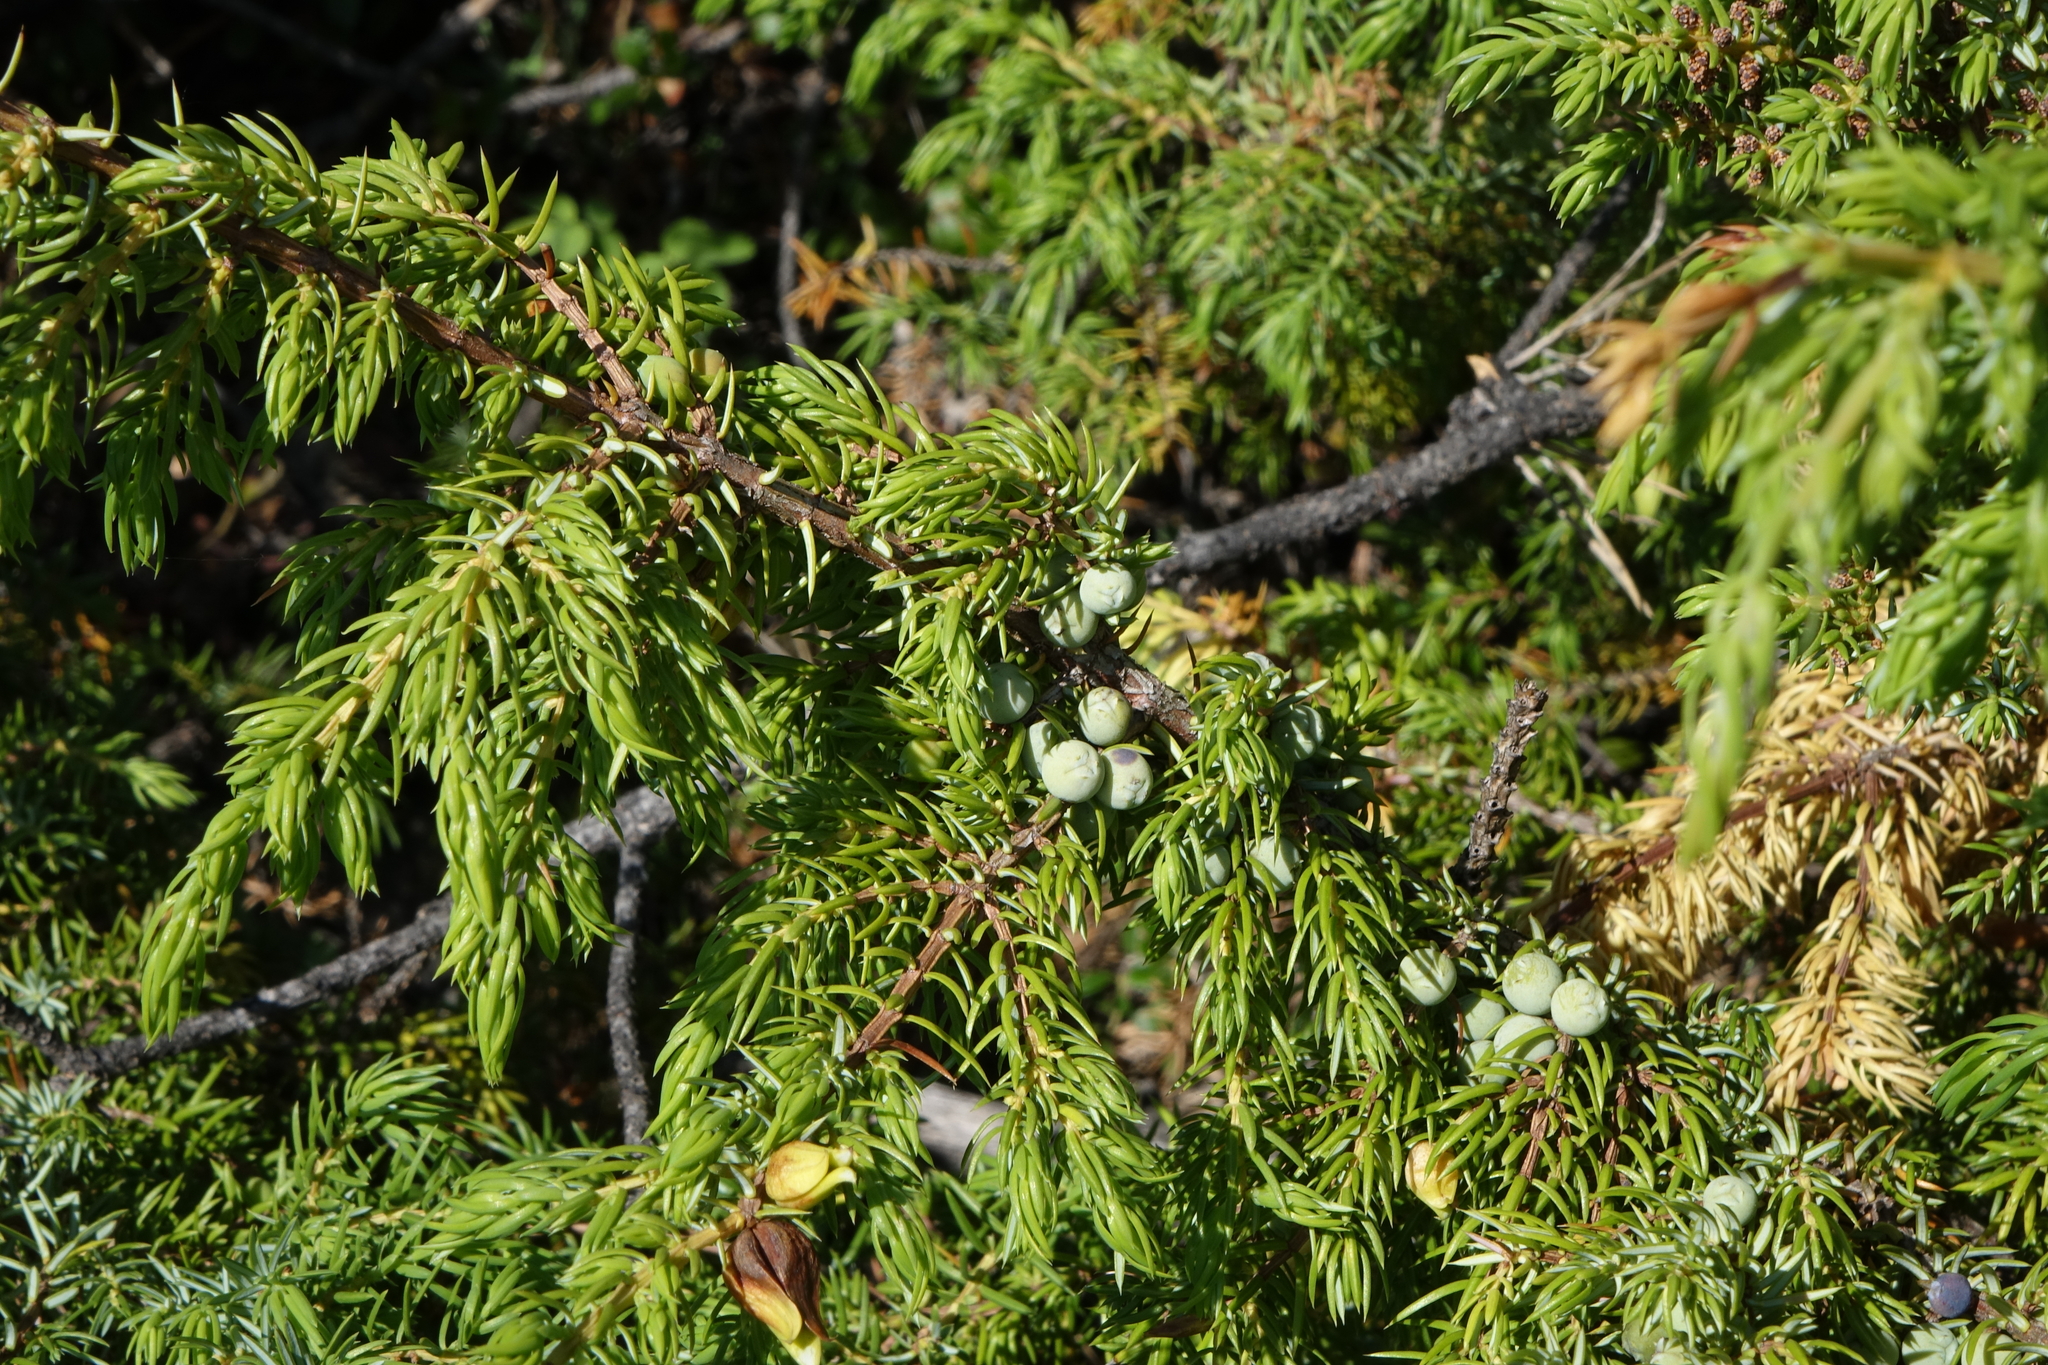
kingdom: Plantae
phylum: Tracheophyta
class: Pinopsida
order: Pinales
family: Cupressaceae
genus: Juniperus
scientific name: Juniperus communis
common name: Common juniper
